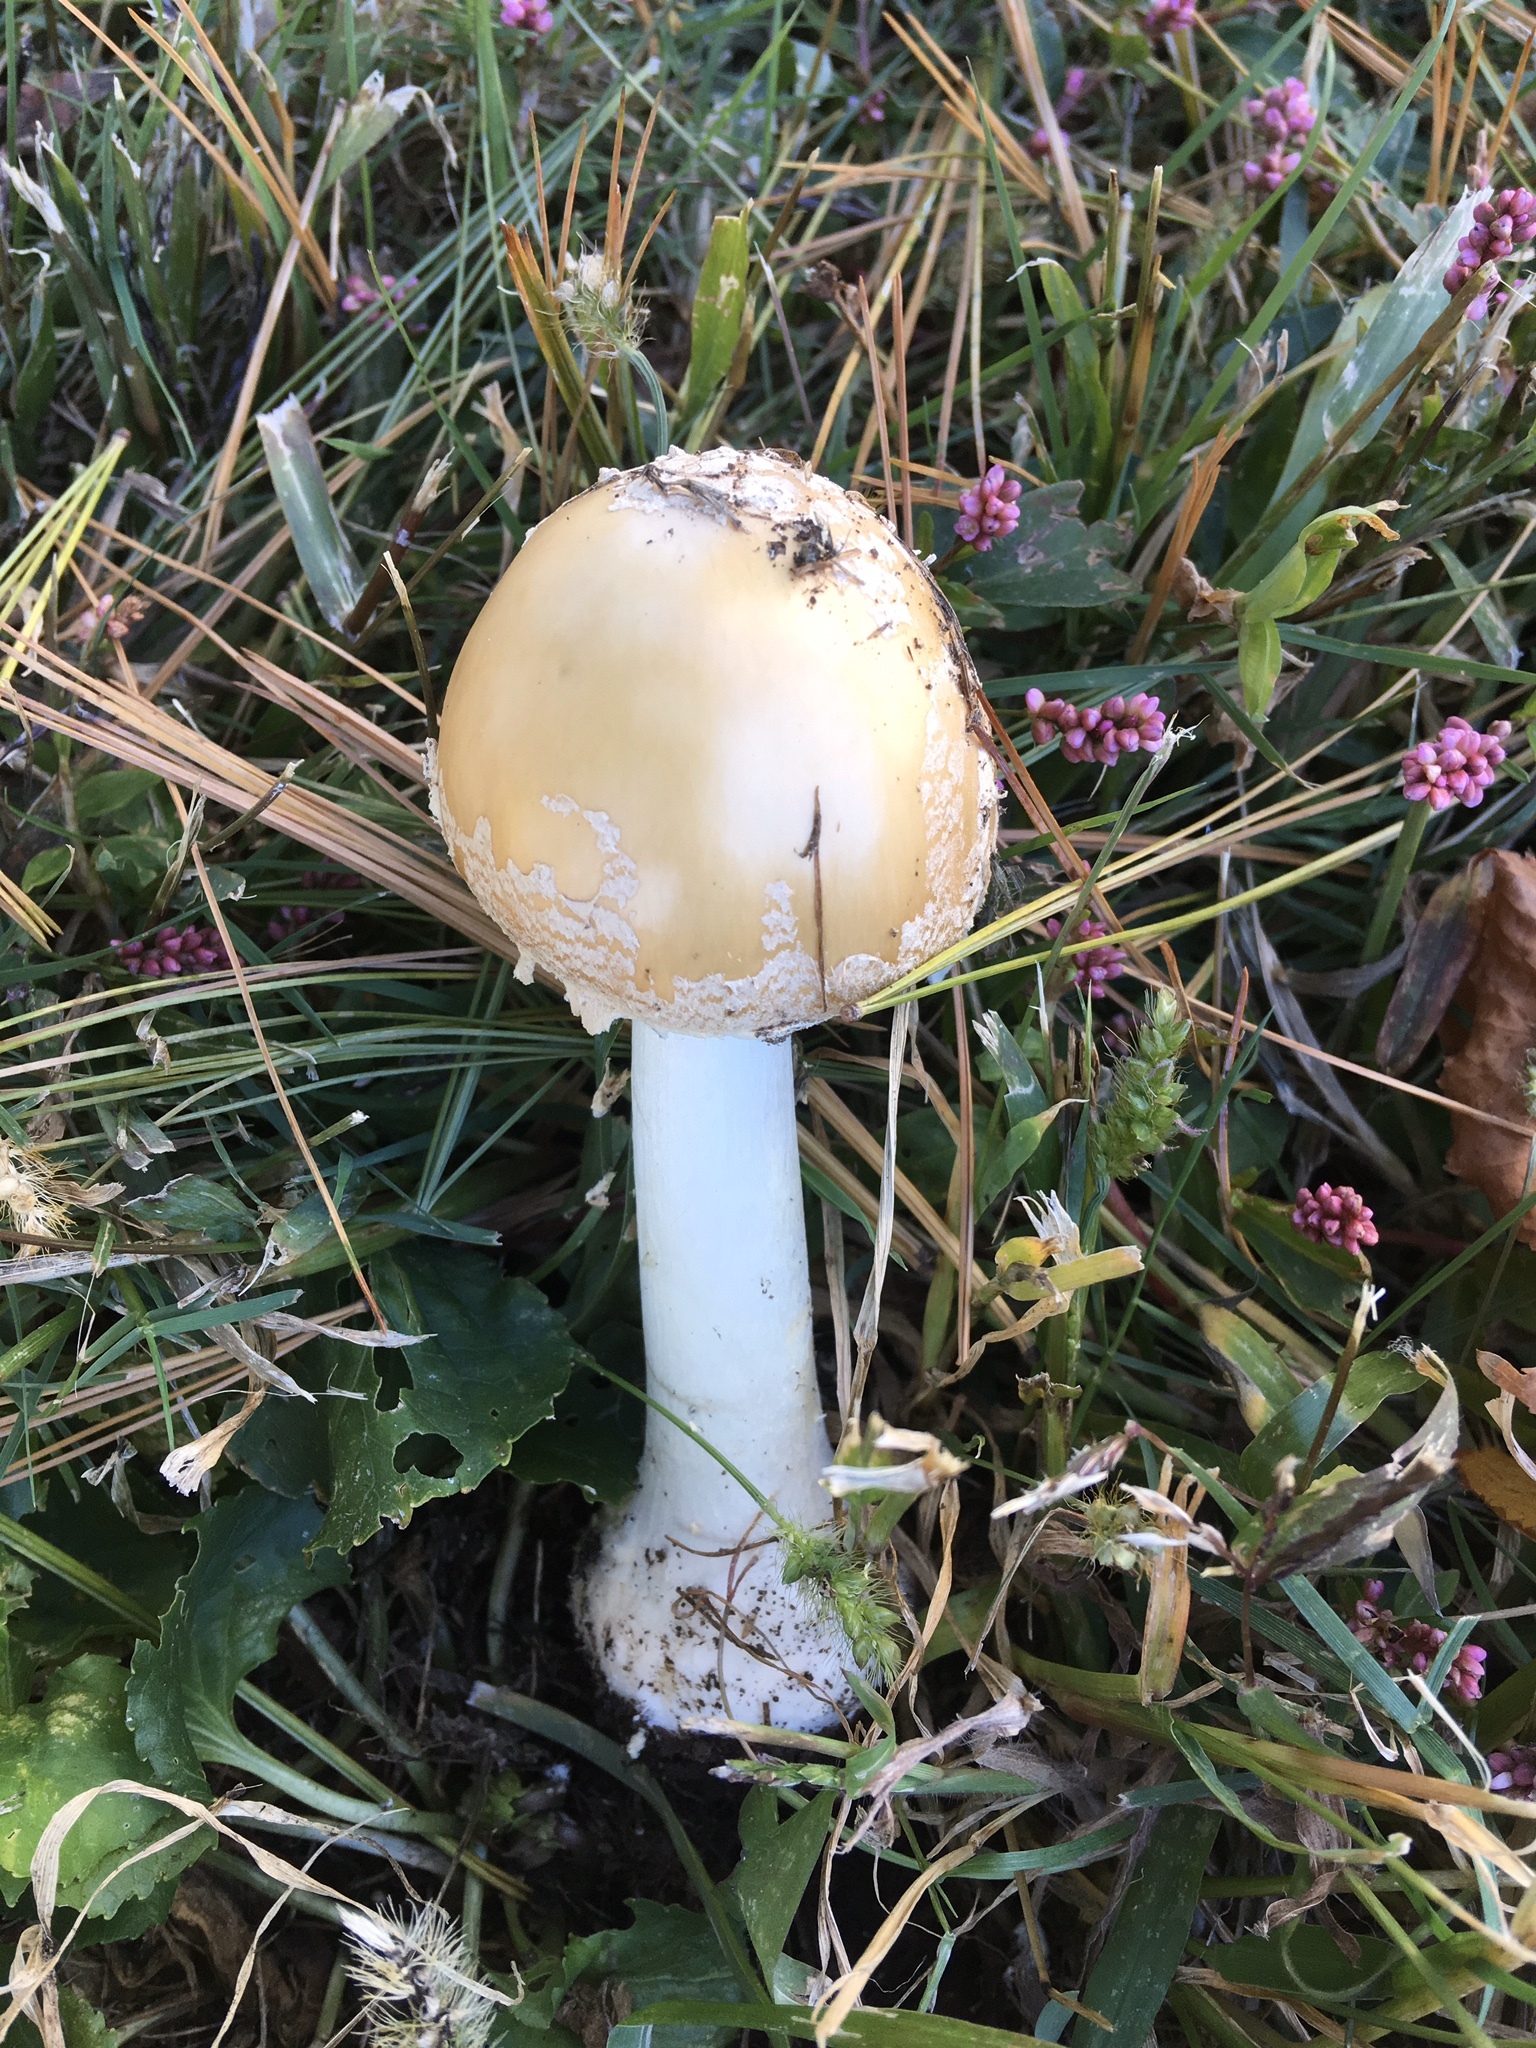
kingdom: Fungi
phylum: Basidiomycota
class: Agaricomycetes
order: Agaricales
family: Amanitaceae
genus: Amanita
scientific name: Amanita crenulata
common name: Poison champagne amanita
